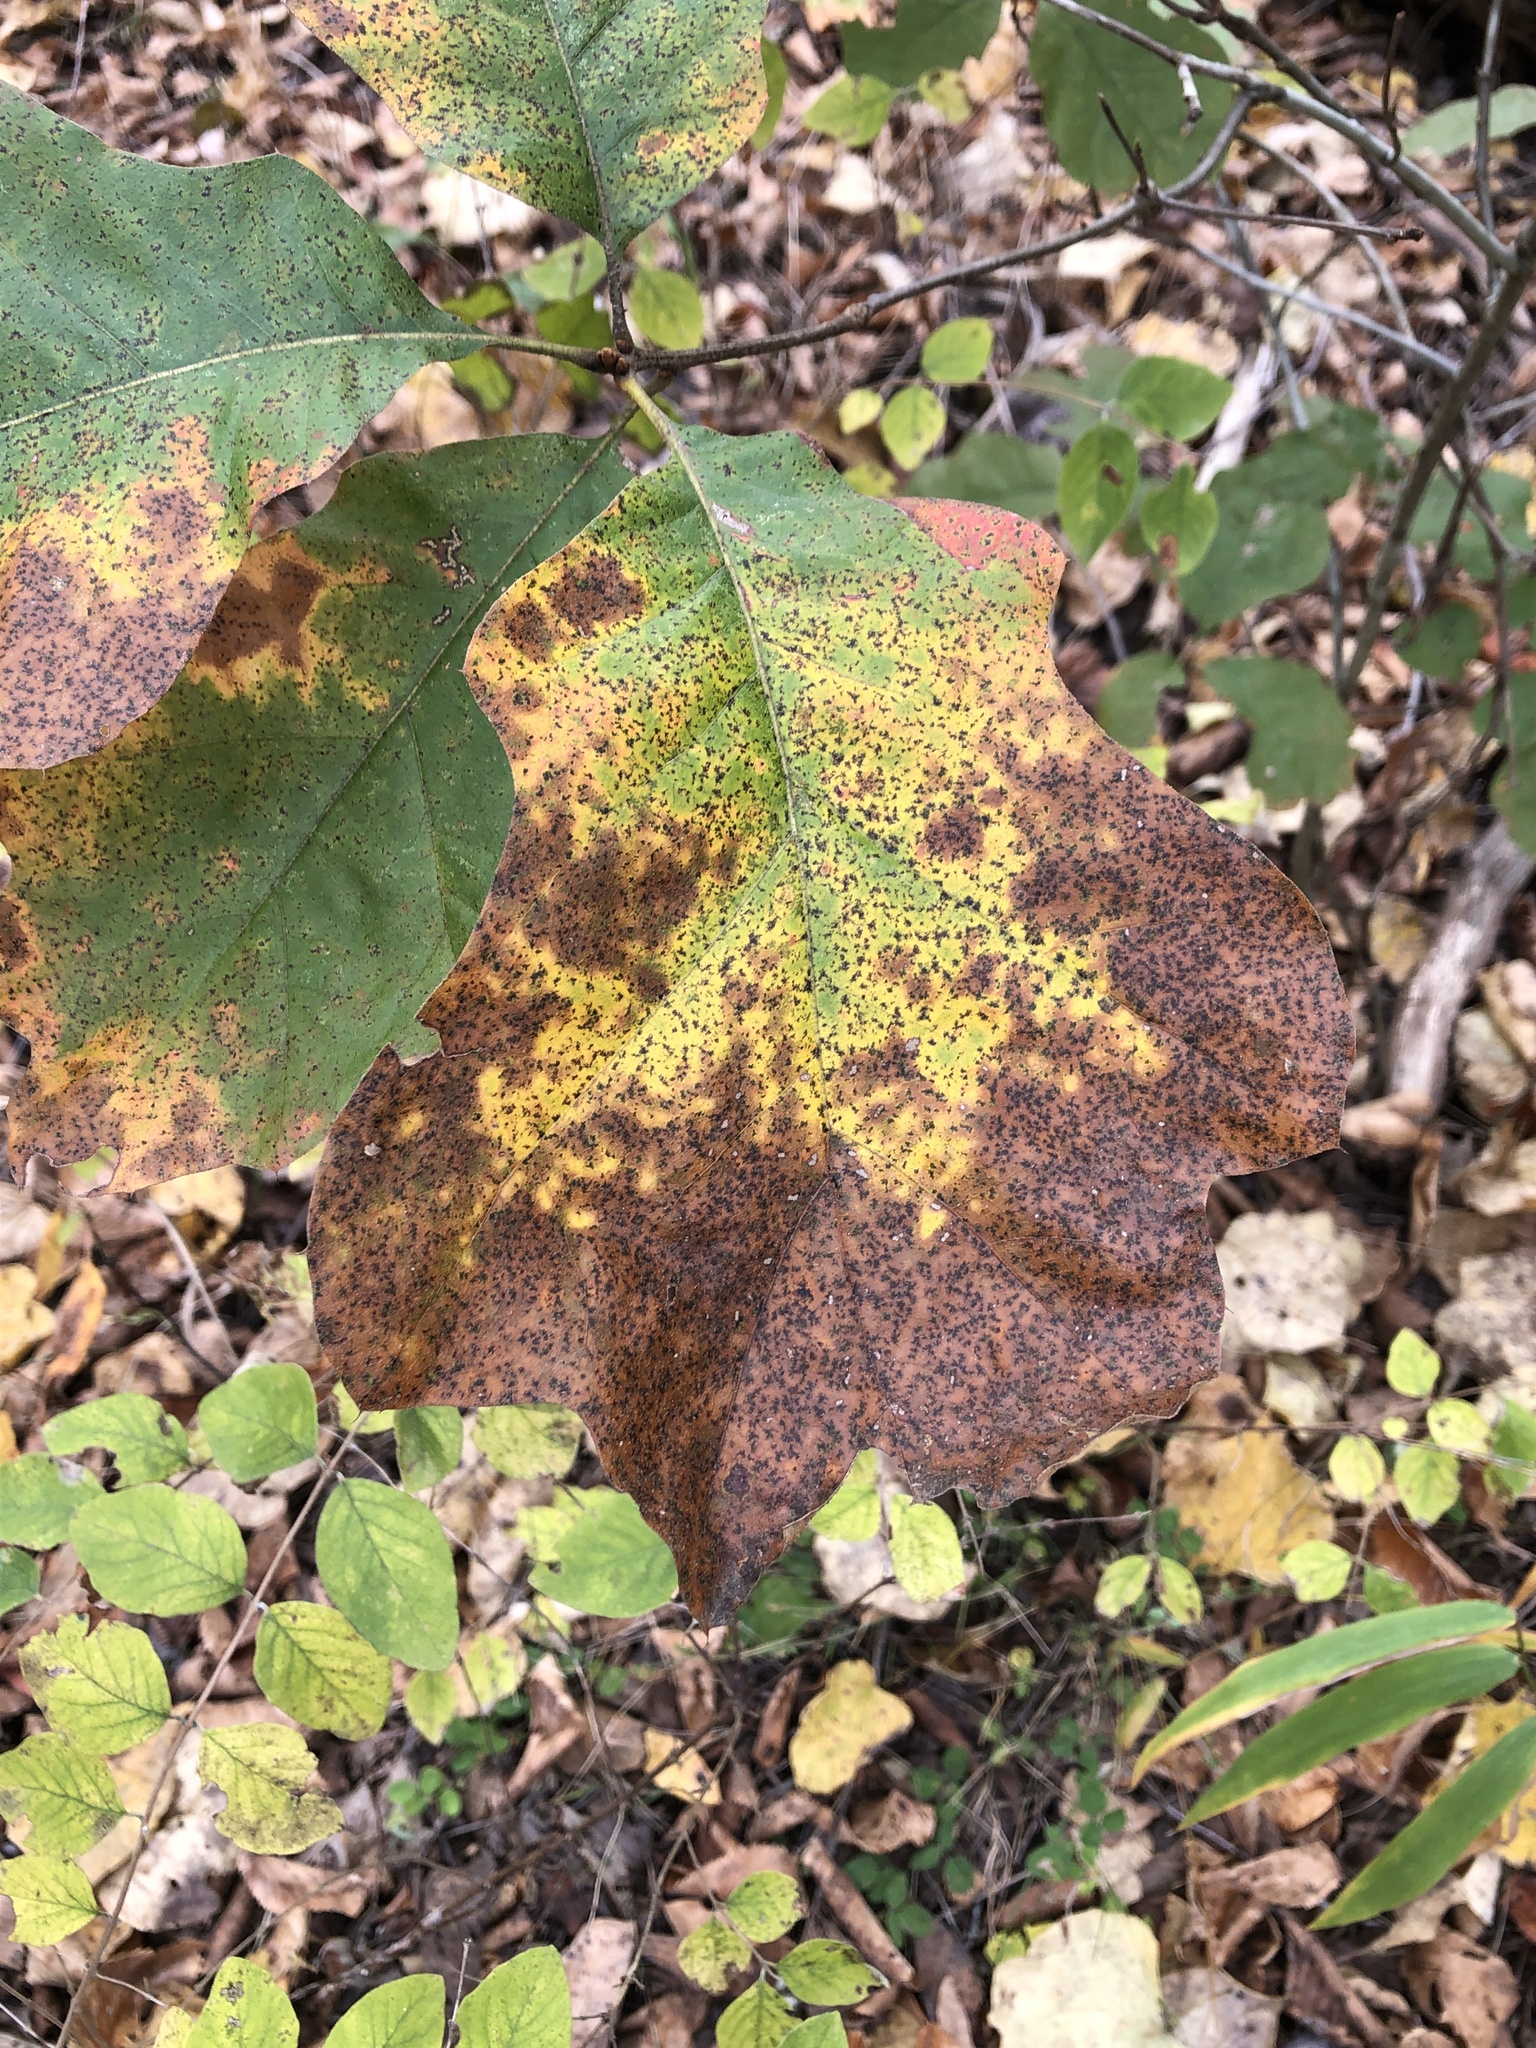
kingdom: Plantae
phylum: Tracheophyta
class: Magnoliopsida
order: Fagales
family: Fagaceae
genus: Quercus
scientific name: Quercus velutina
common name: Black oak
